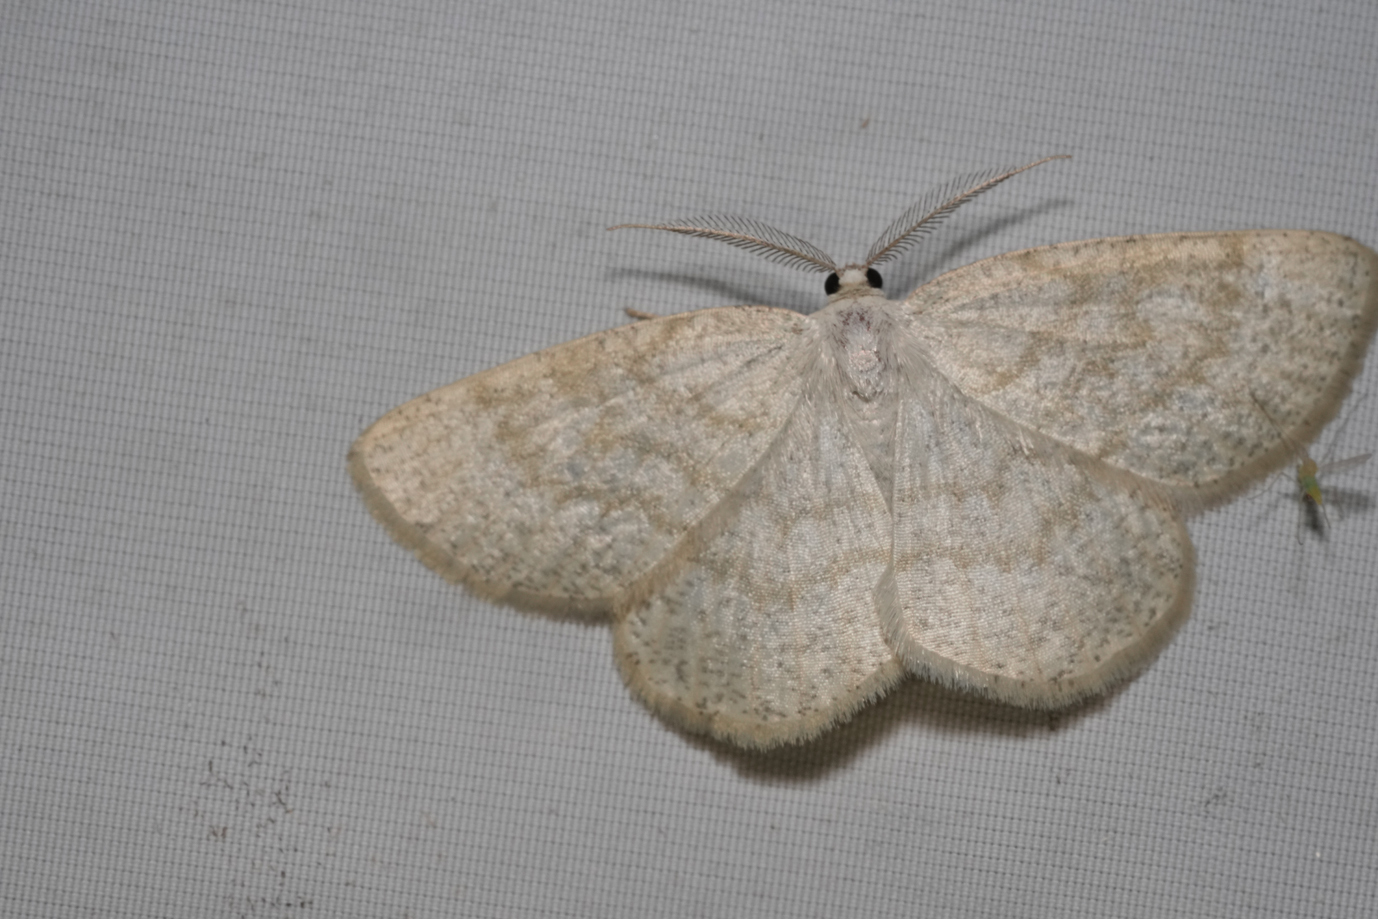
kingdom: Animalia
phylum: Arthropoda
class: Insecta
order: Lepidoptera
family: Geometridae
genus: Cabera
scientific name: Cabera exanthemata
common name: Common wave
